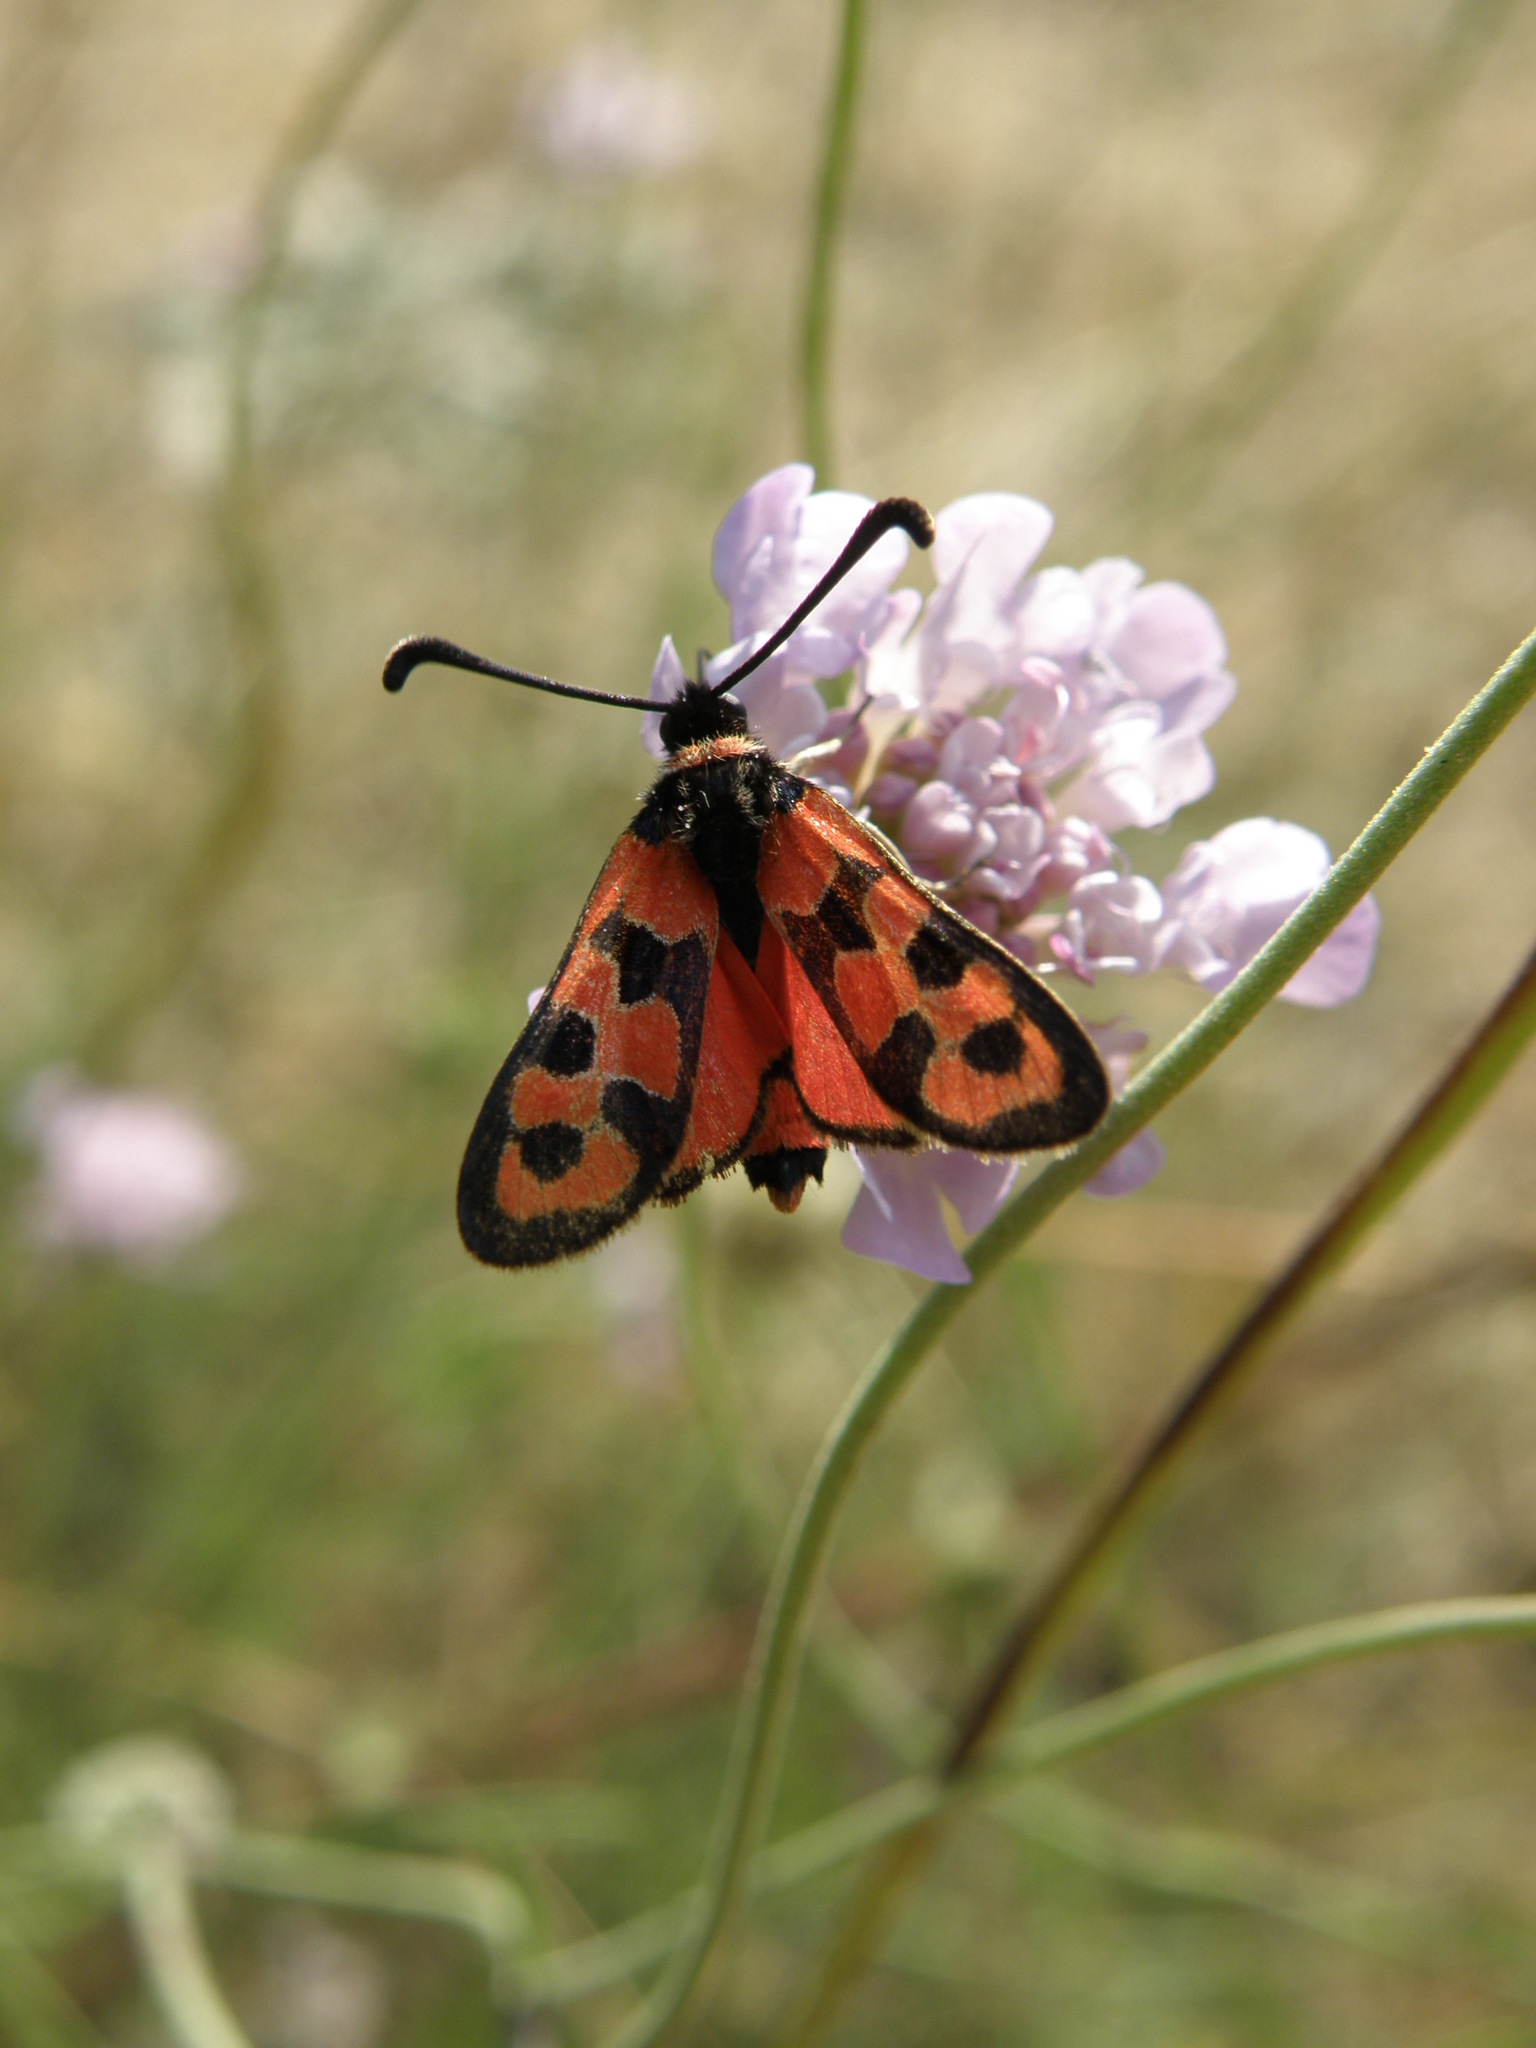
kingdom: Animalia
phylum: Arthropoda
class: Insecta
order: Lepidoptera
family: Zygaenidae
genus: Zygaena
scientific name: Zygaena fausta
